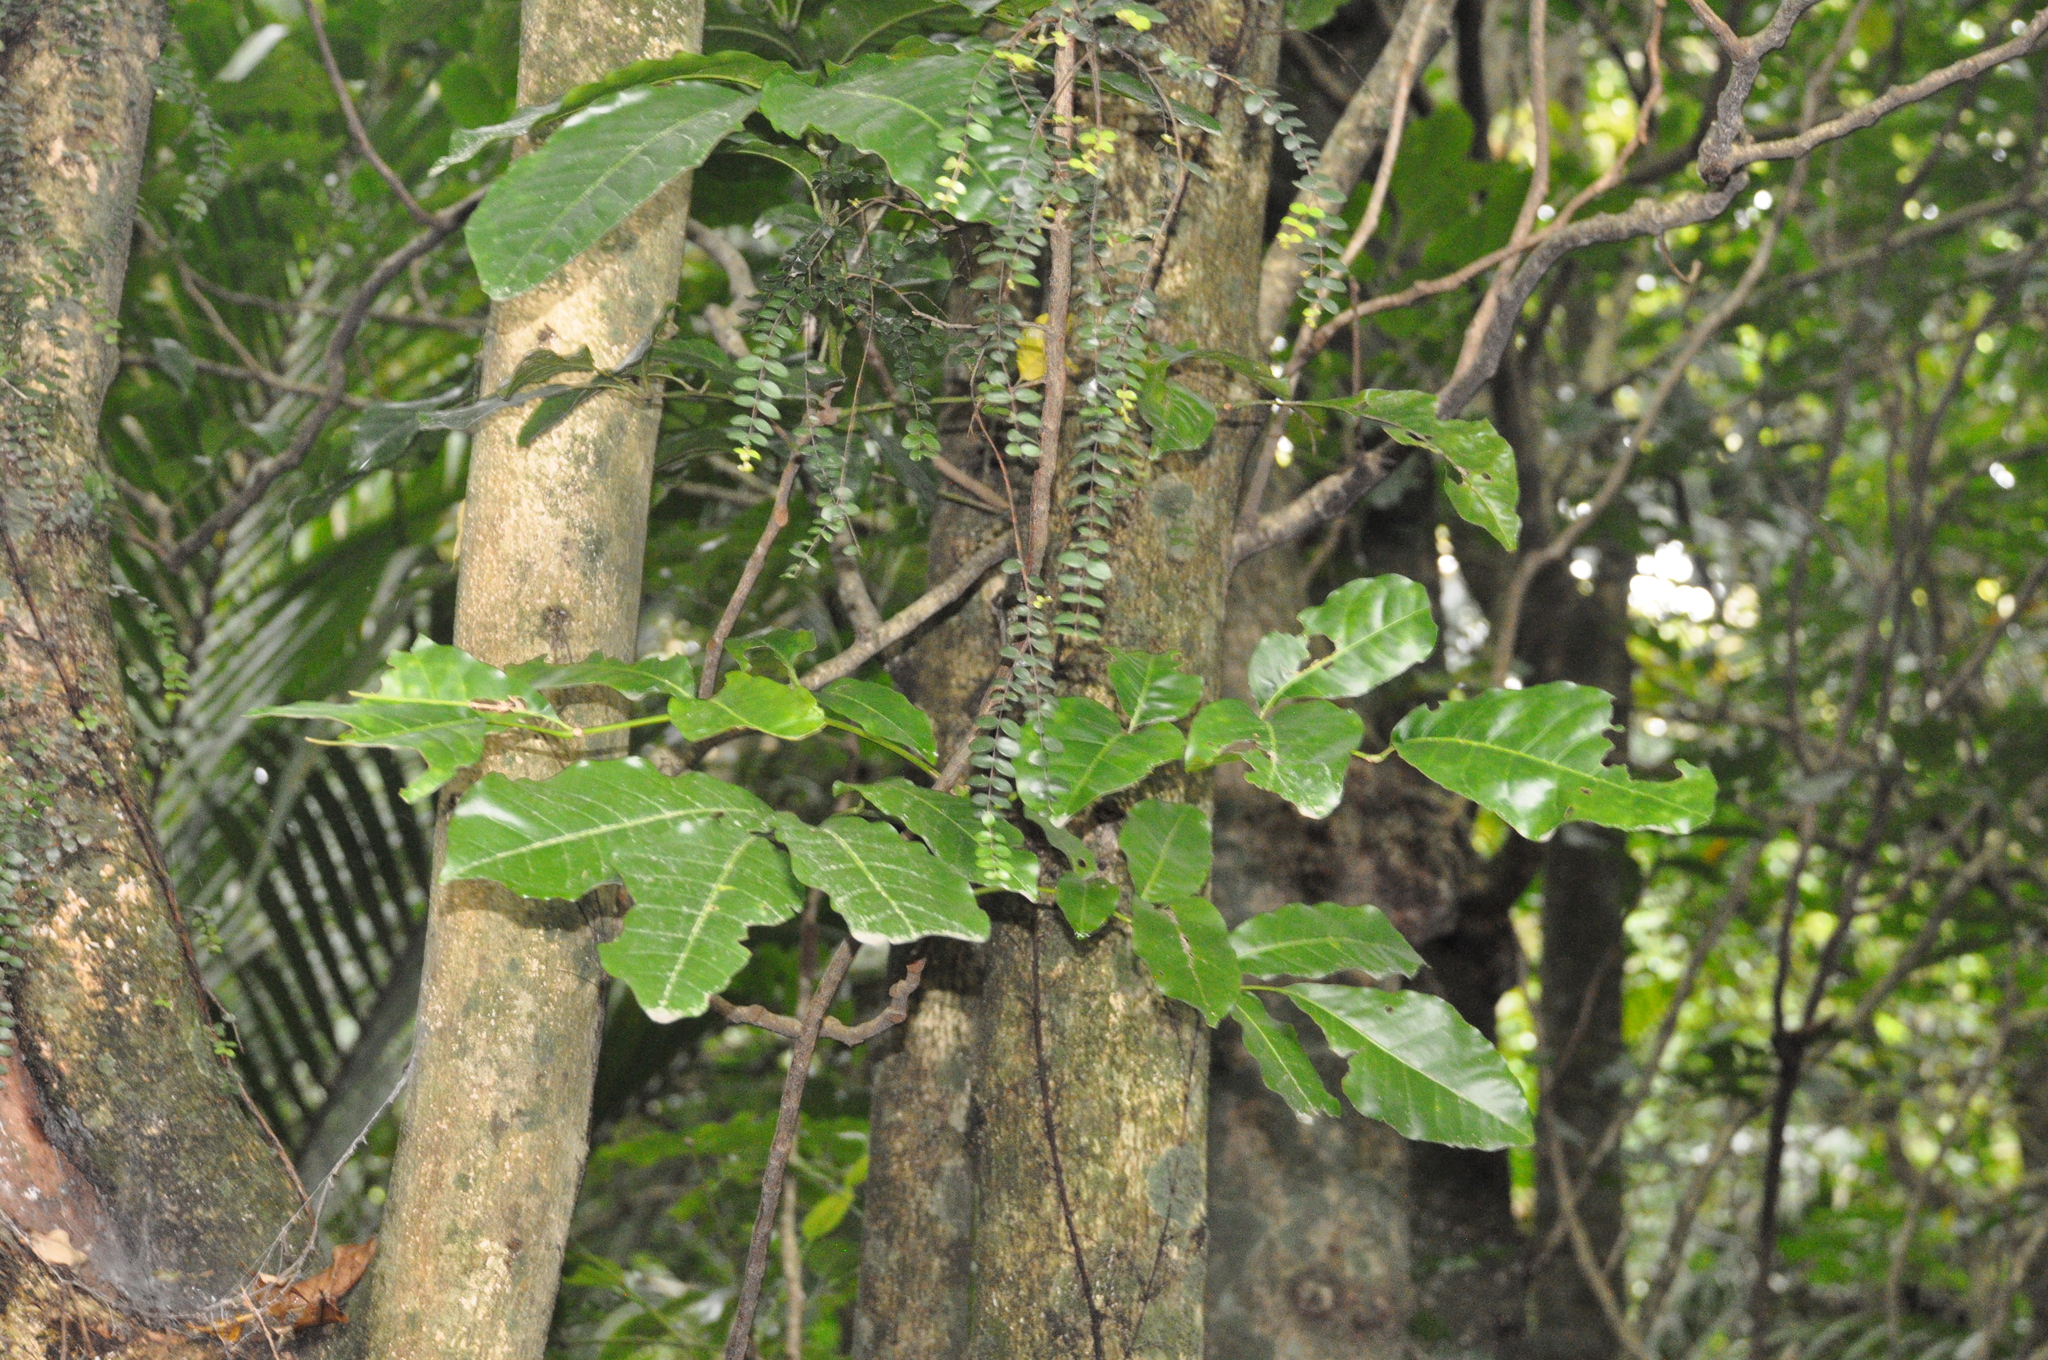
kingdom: Plantae
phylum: Tracheophyta
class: Magnoliopsida
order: Sapindales
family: Meliaceae
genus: Didymocheton
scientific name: Didymocheton spectabilis
